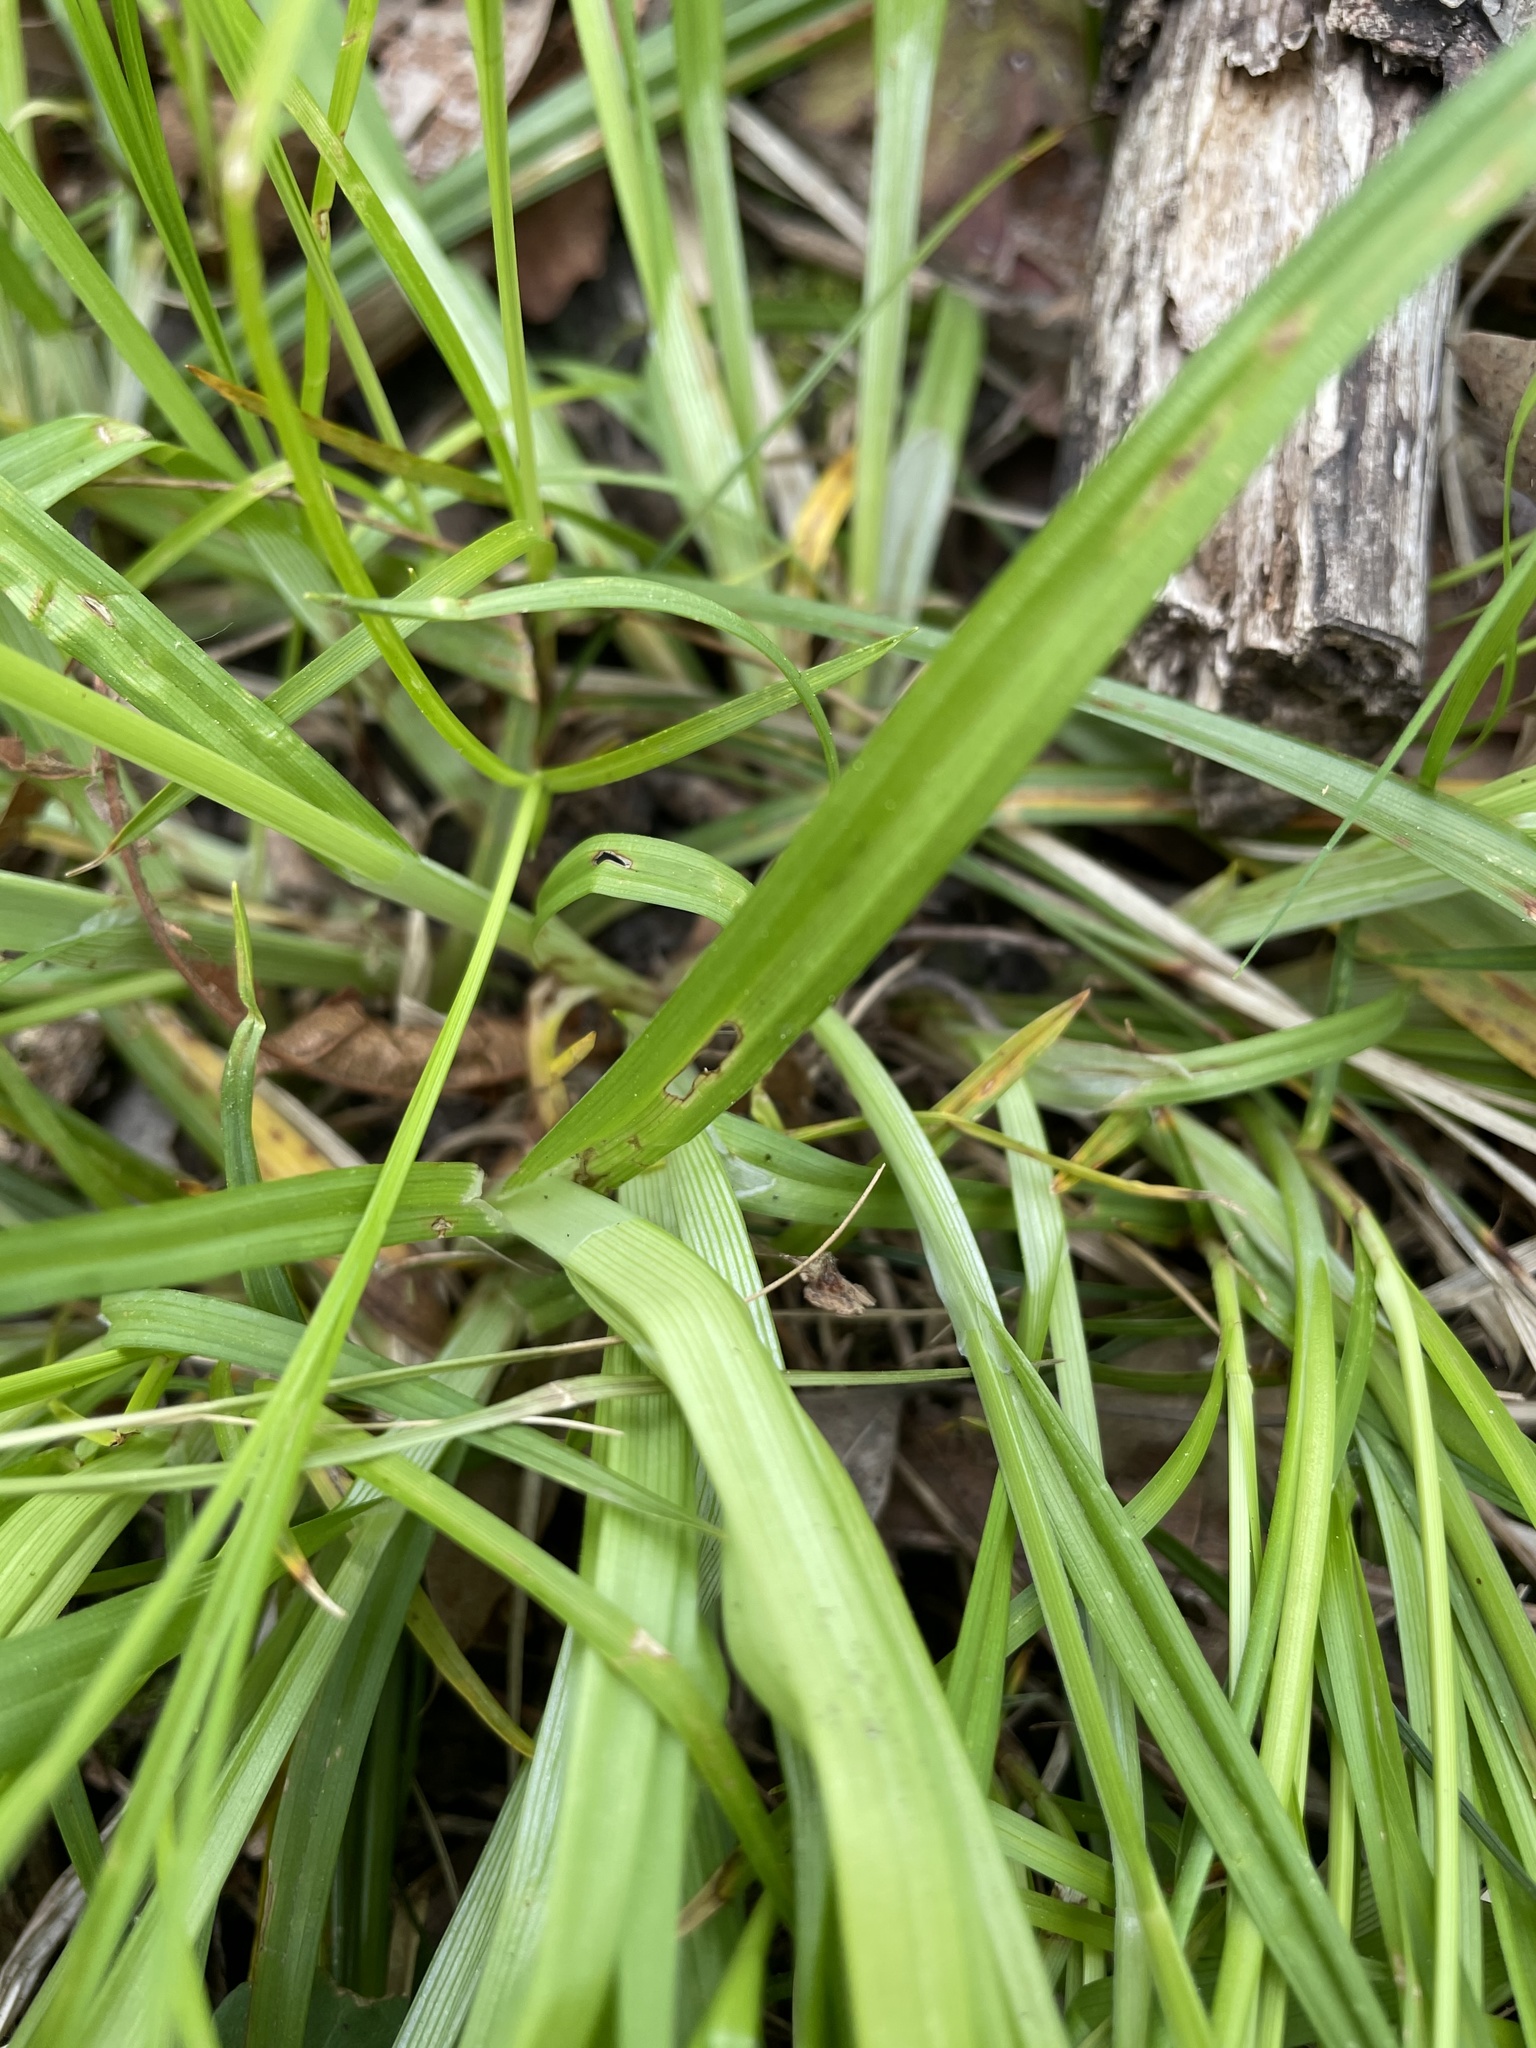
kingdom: Plantae
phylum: Tracheophyta
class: Liliopsida
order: Poales
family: Cyperaceae
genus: Carex
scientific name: Carex blanda
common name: Bland sedge
